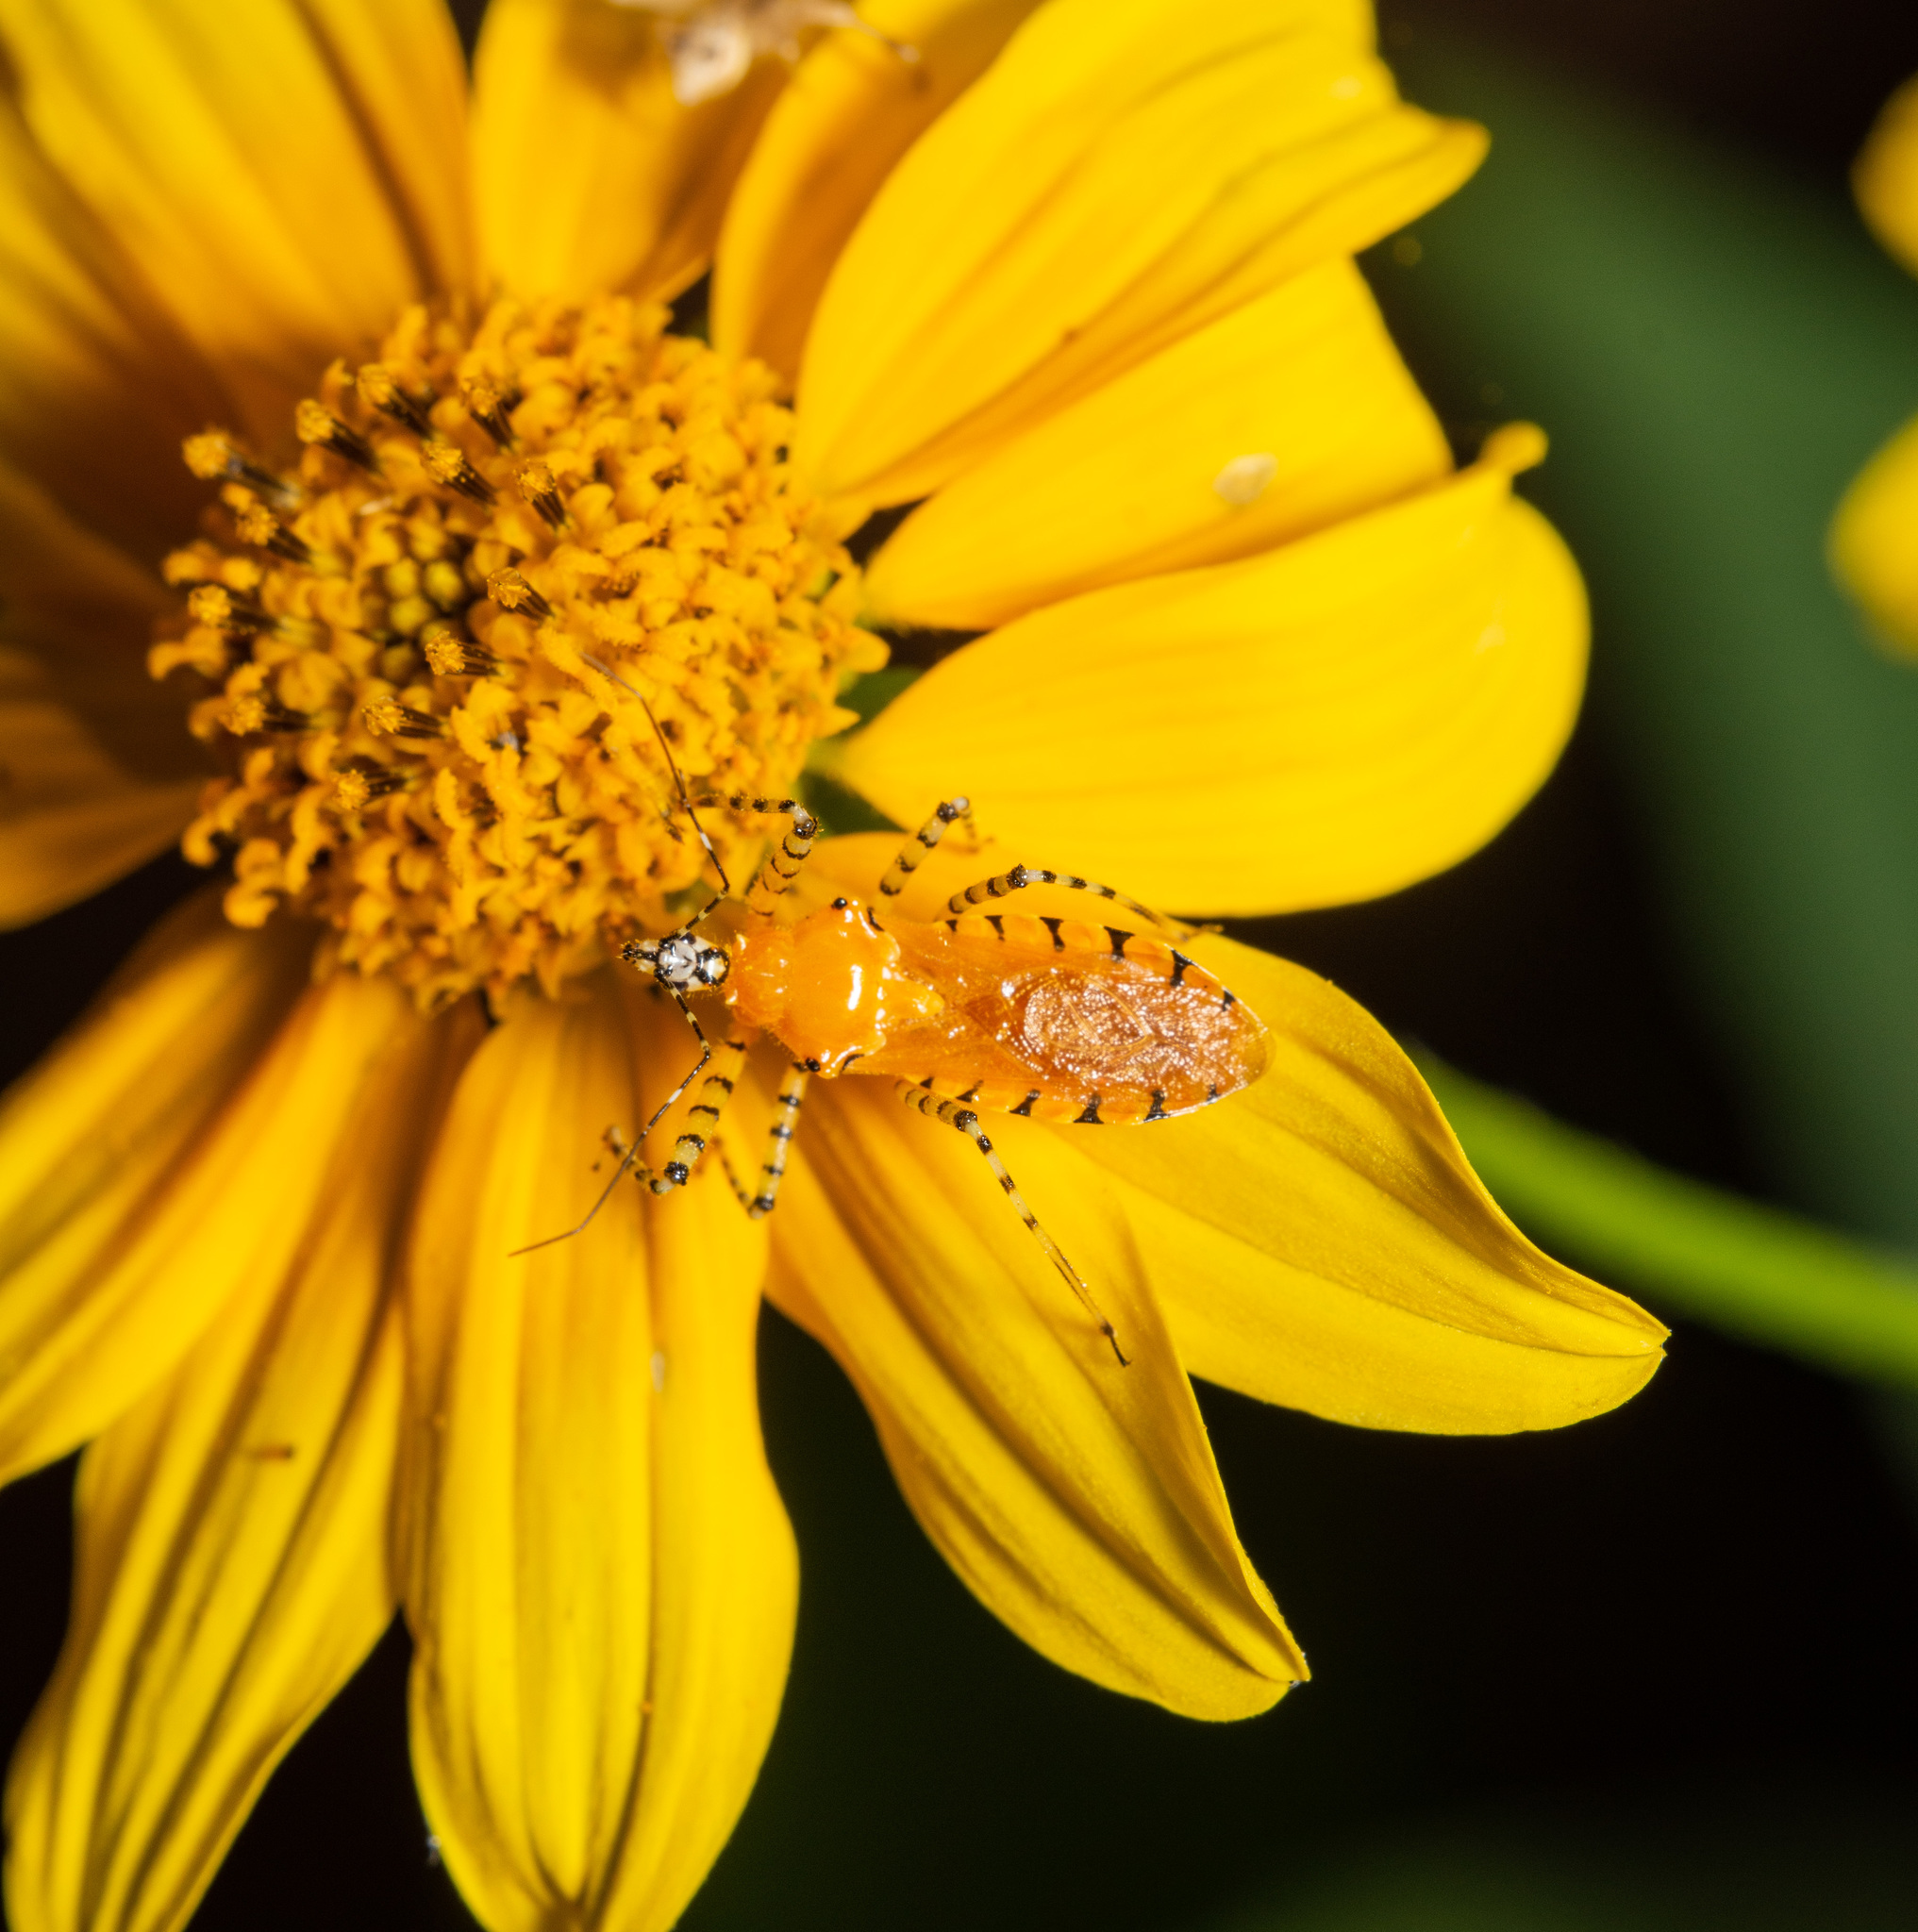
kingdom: Animalia
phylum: Arthropoda
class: Insecta
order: Hemiptera
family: Reduviidae
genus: Pselliopus
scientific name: Pselliopus barberi
